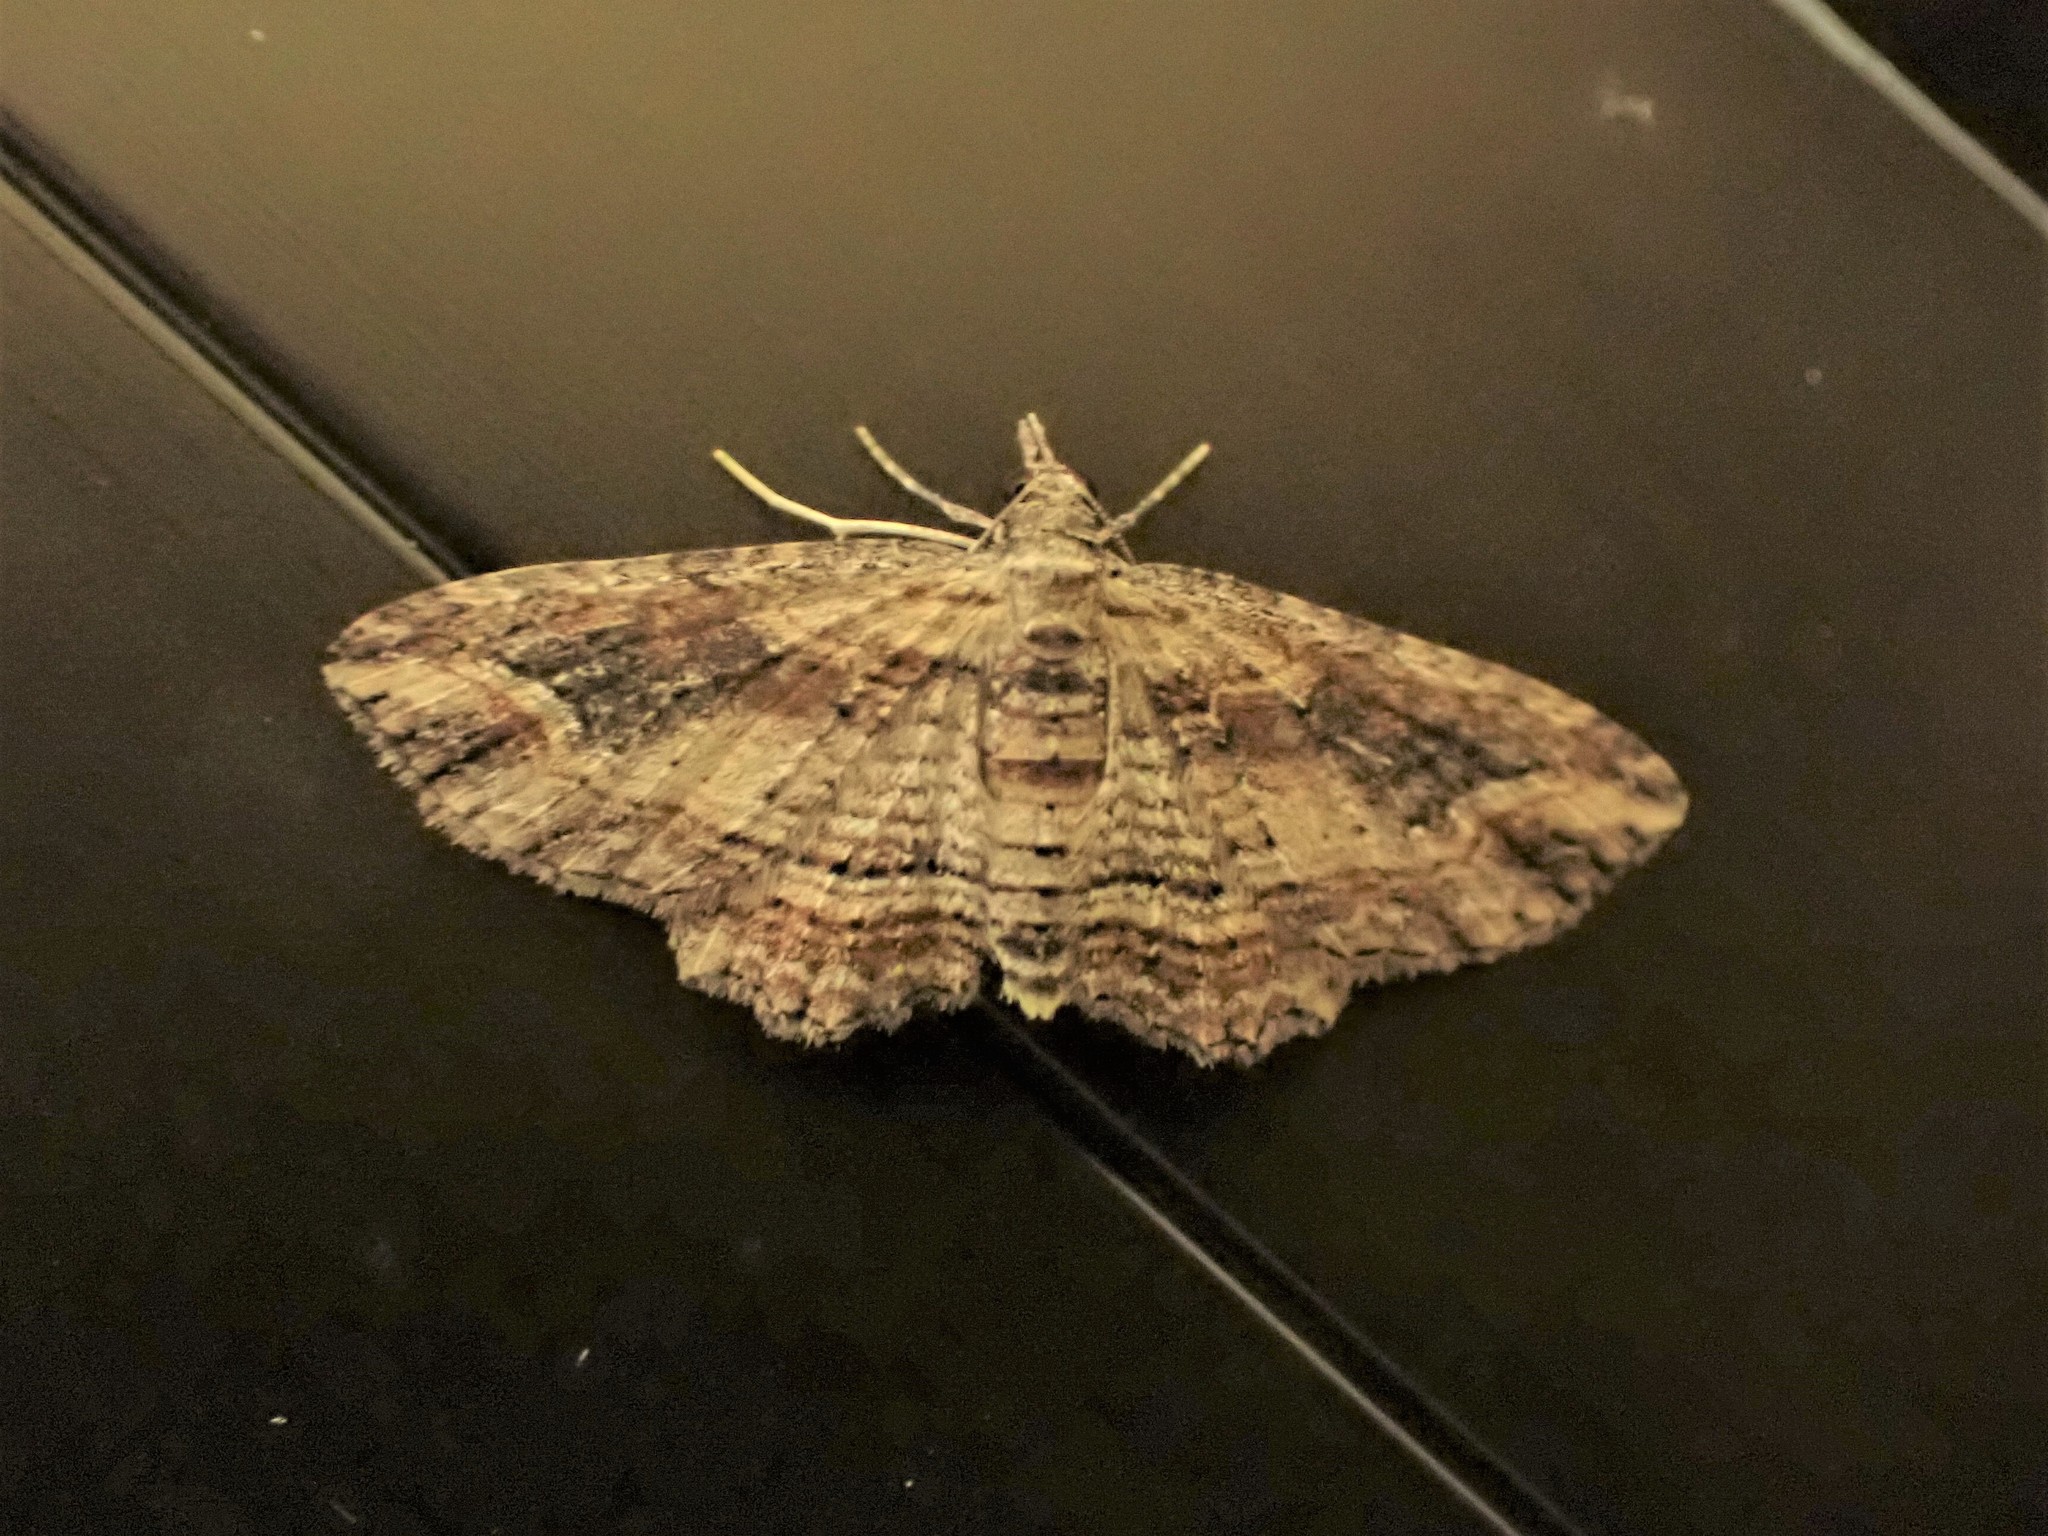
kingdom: Animalia
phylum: Arthropoda
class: Insecta
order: Lepidoptera
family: Geometridae
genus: Chloroclystis
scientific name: Chloroclystis filata
